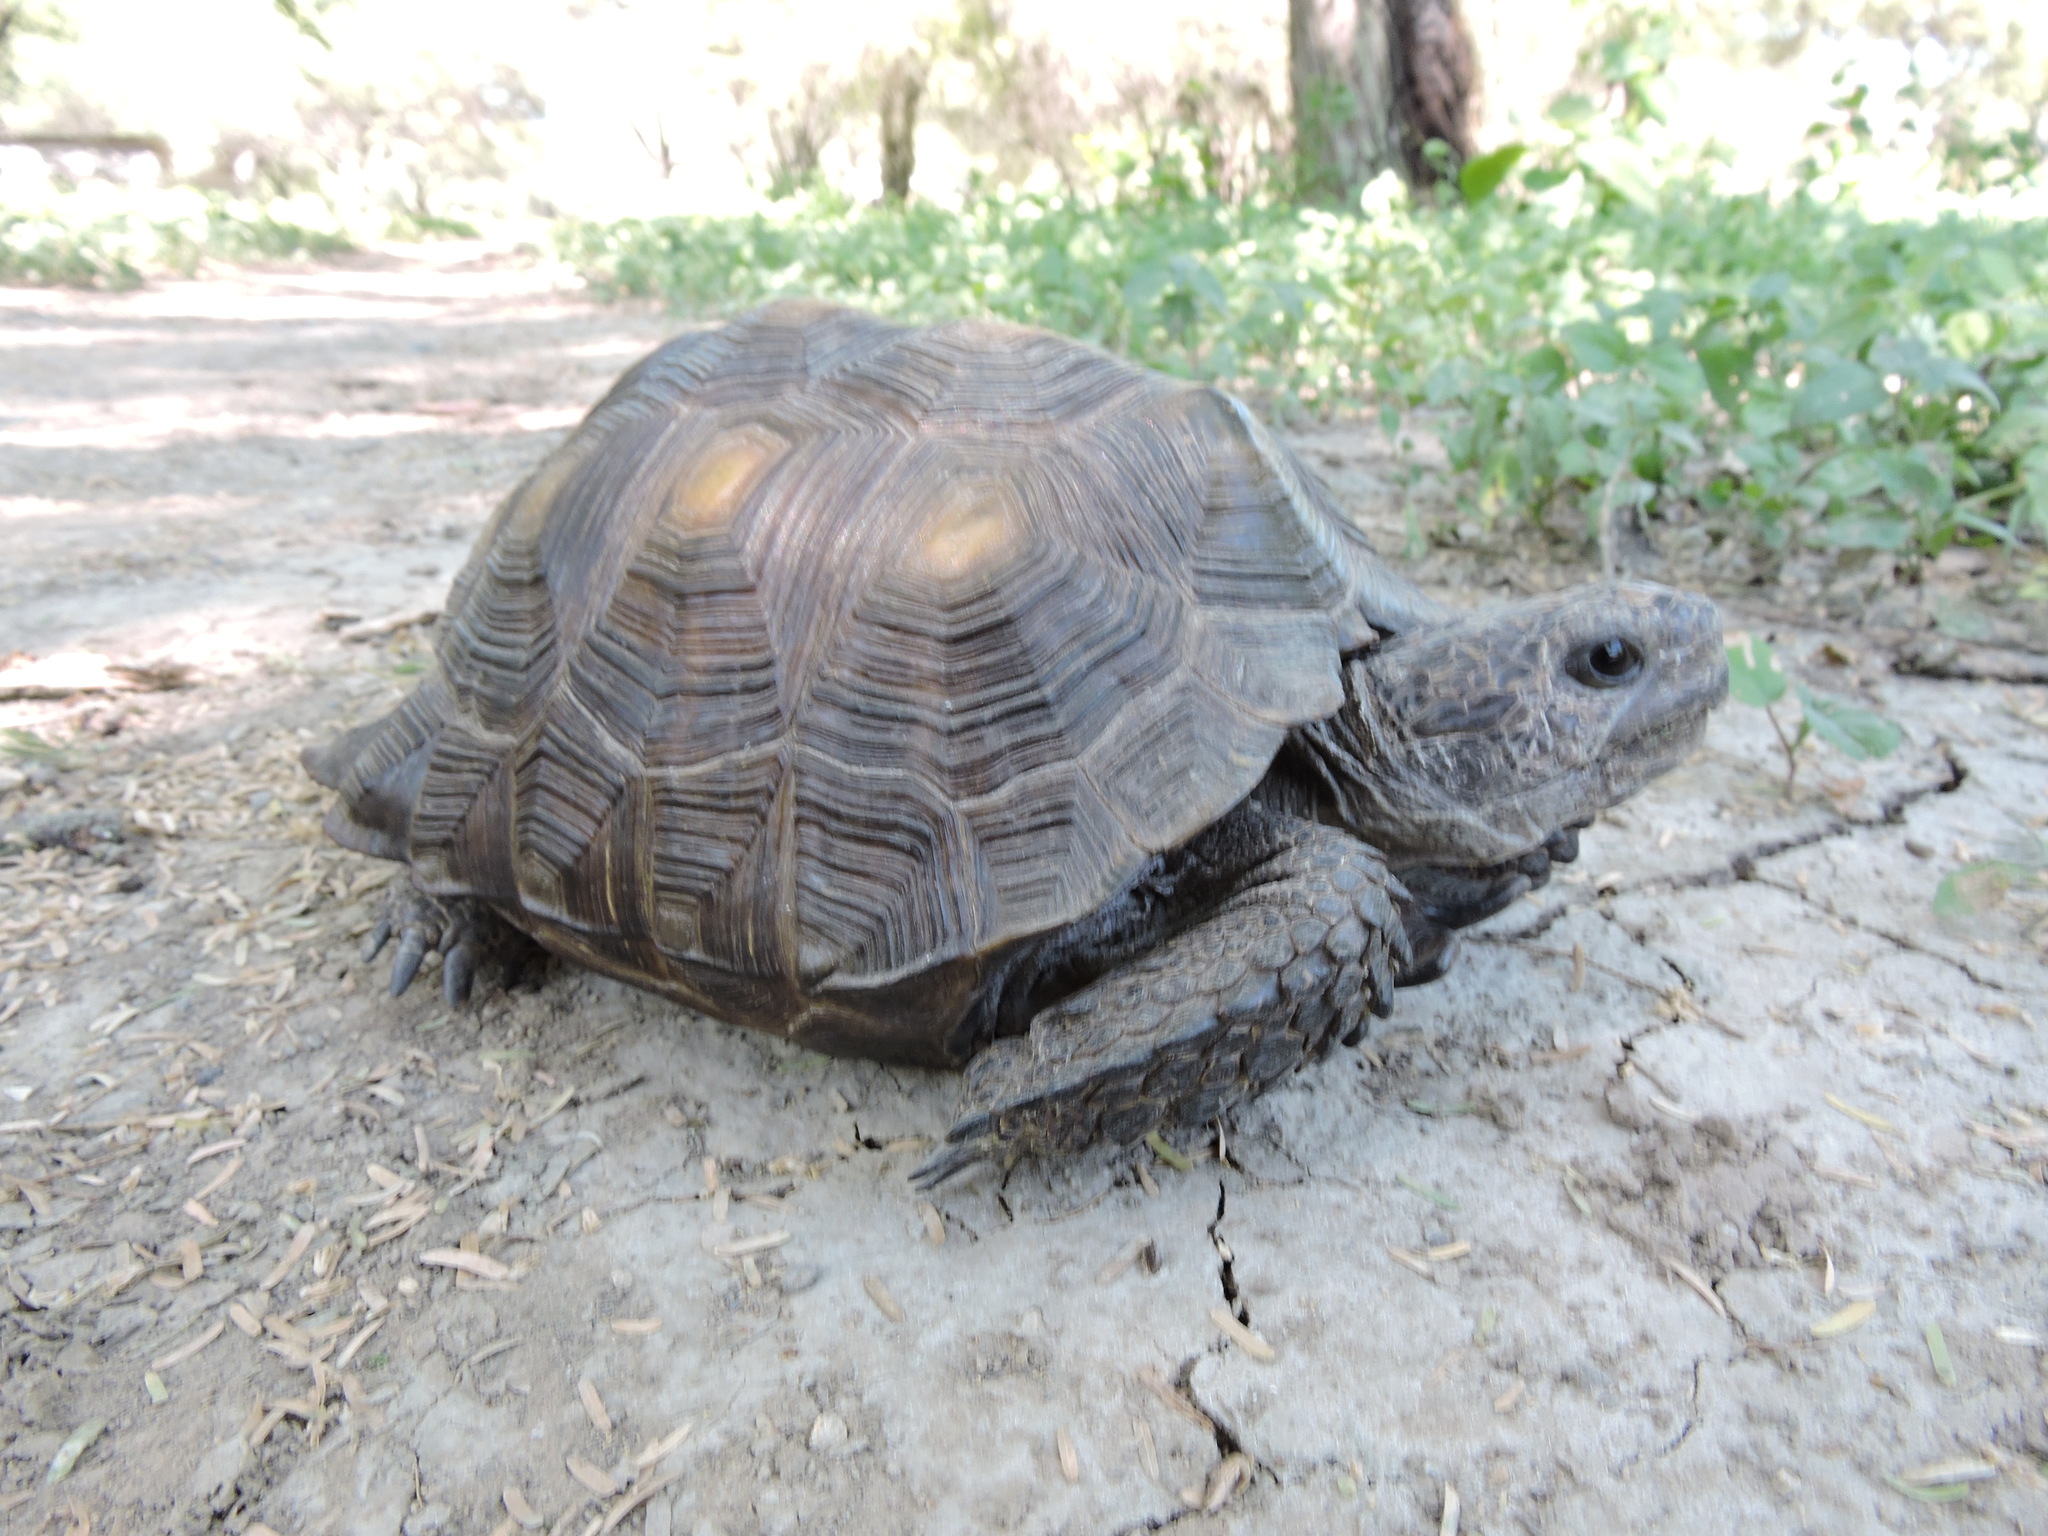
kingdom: Animalia
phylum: Chordata
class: Testudines
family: Testudinidae
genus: Gopherus
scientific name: Gopherus berlandieri
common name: Texas (gopher )tortoise
